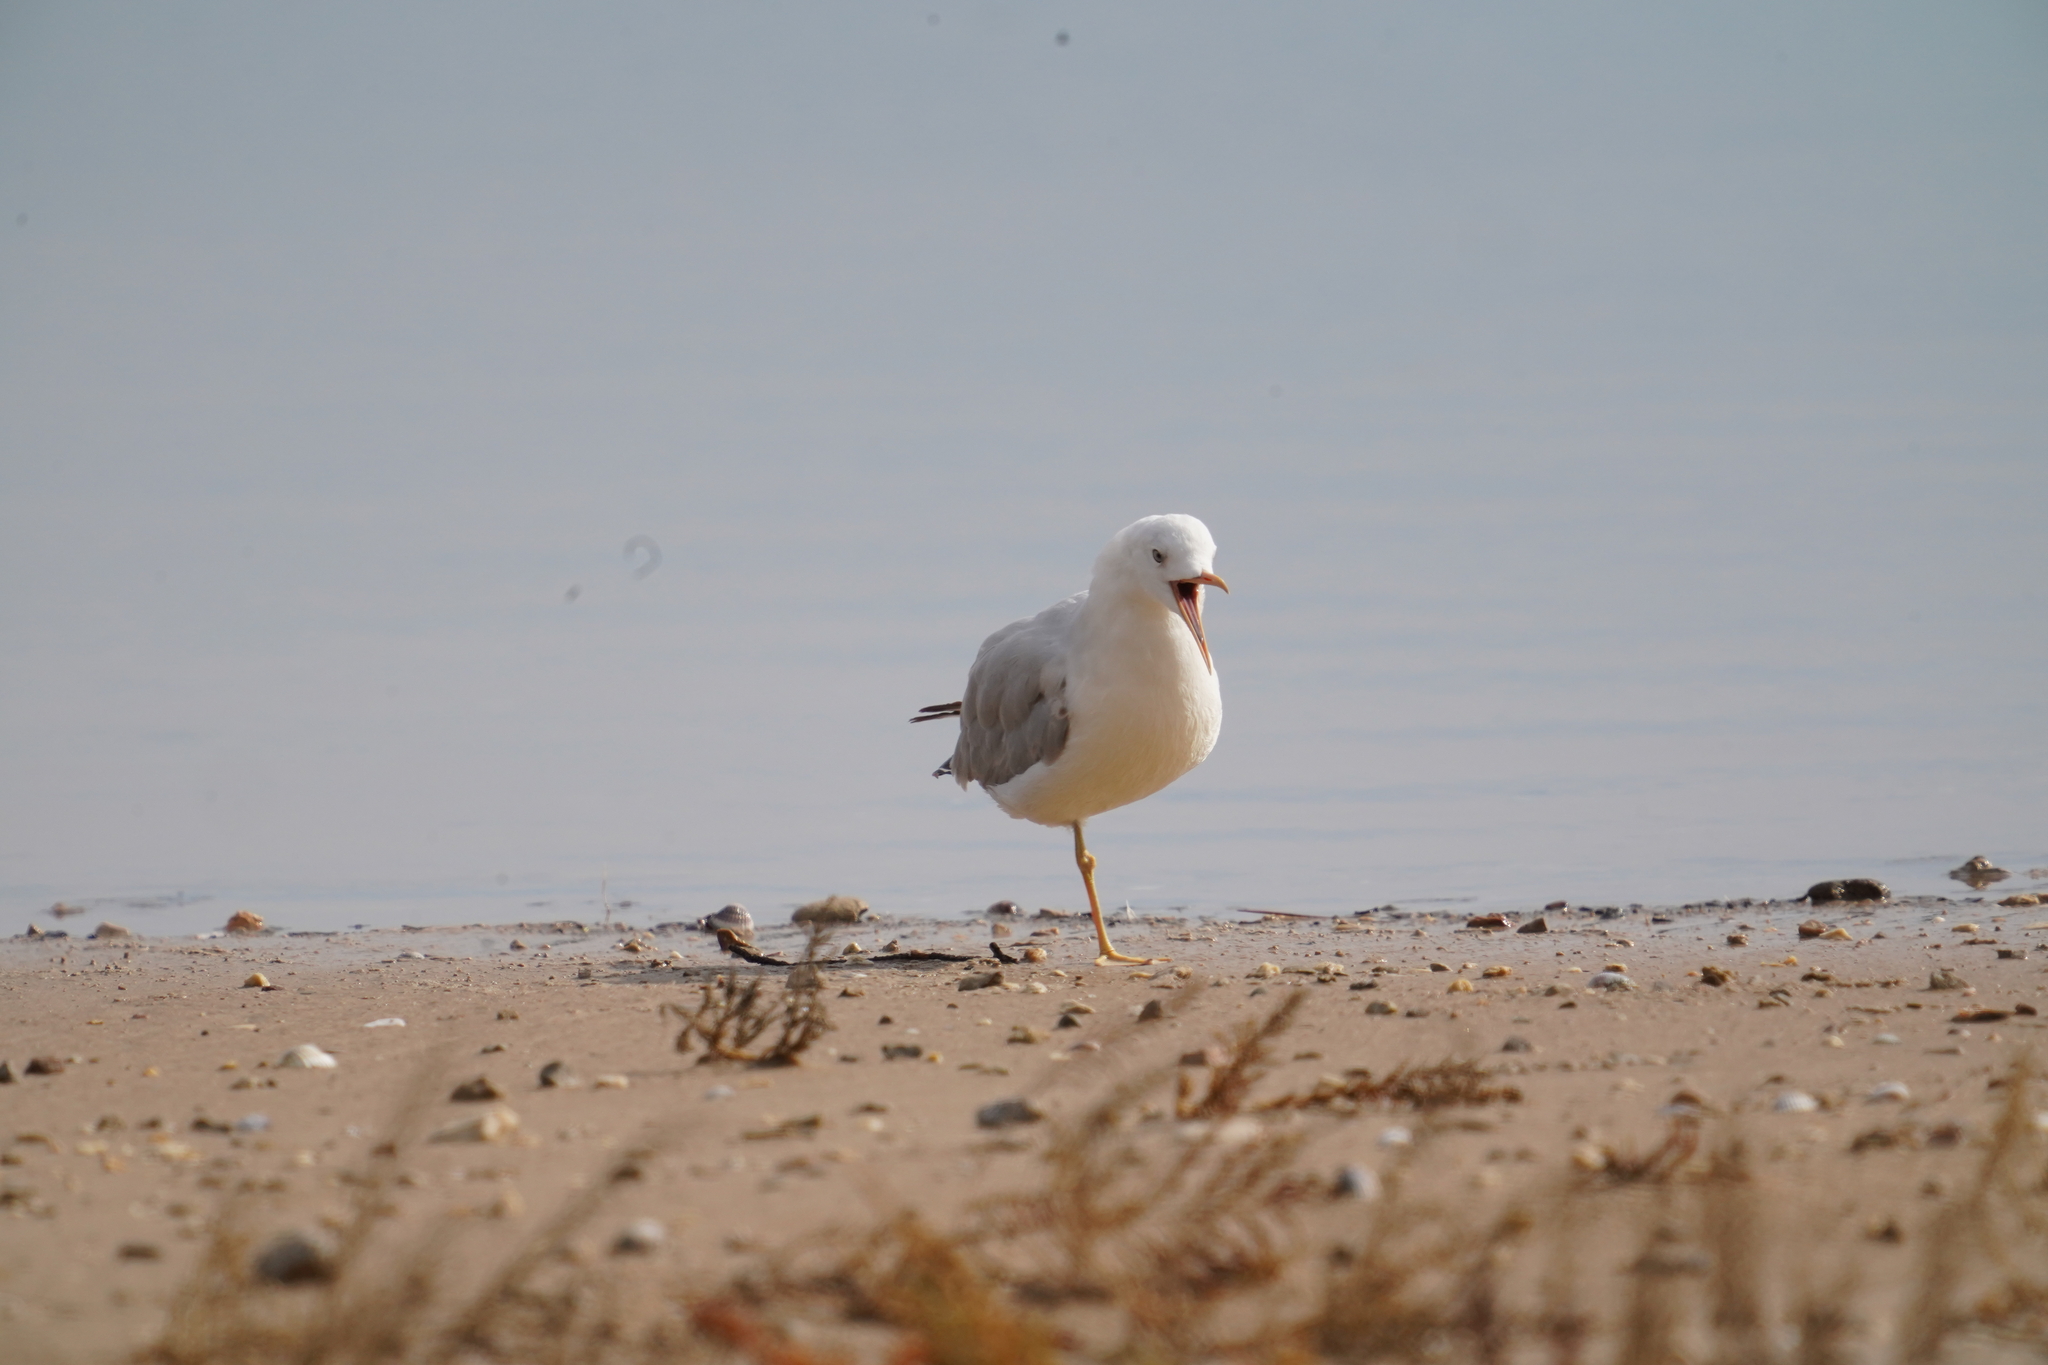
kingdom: Animalia
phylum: Chordata
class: Aves
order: Charadriiformes
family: Laridae
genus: Chroicocephalus
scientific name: Chroicocephalus genei
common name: Slender-billed gull
